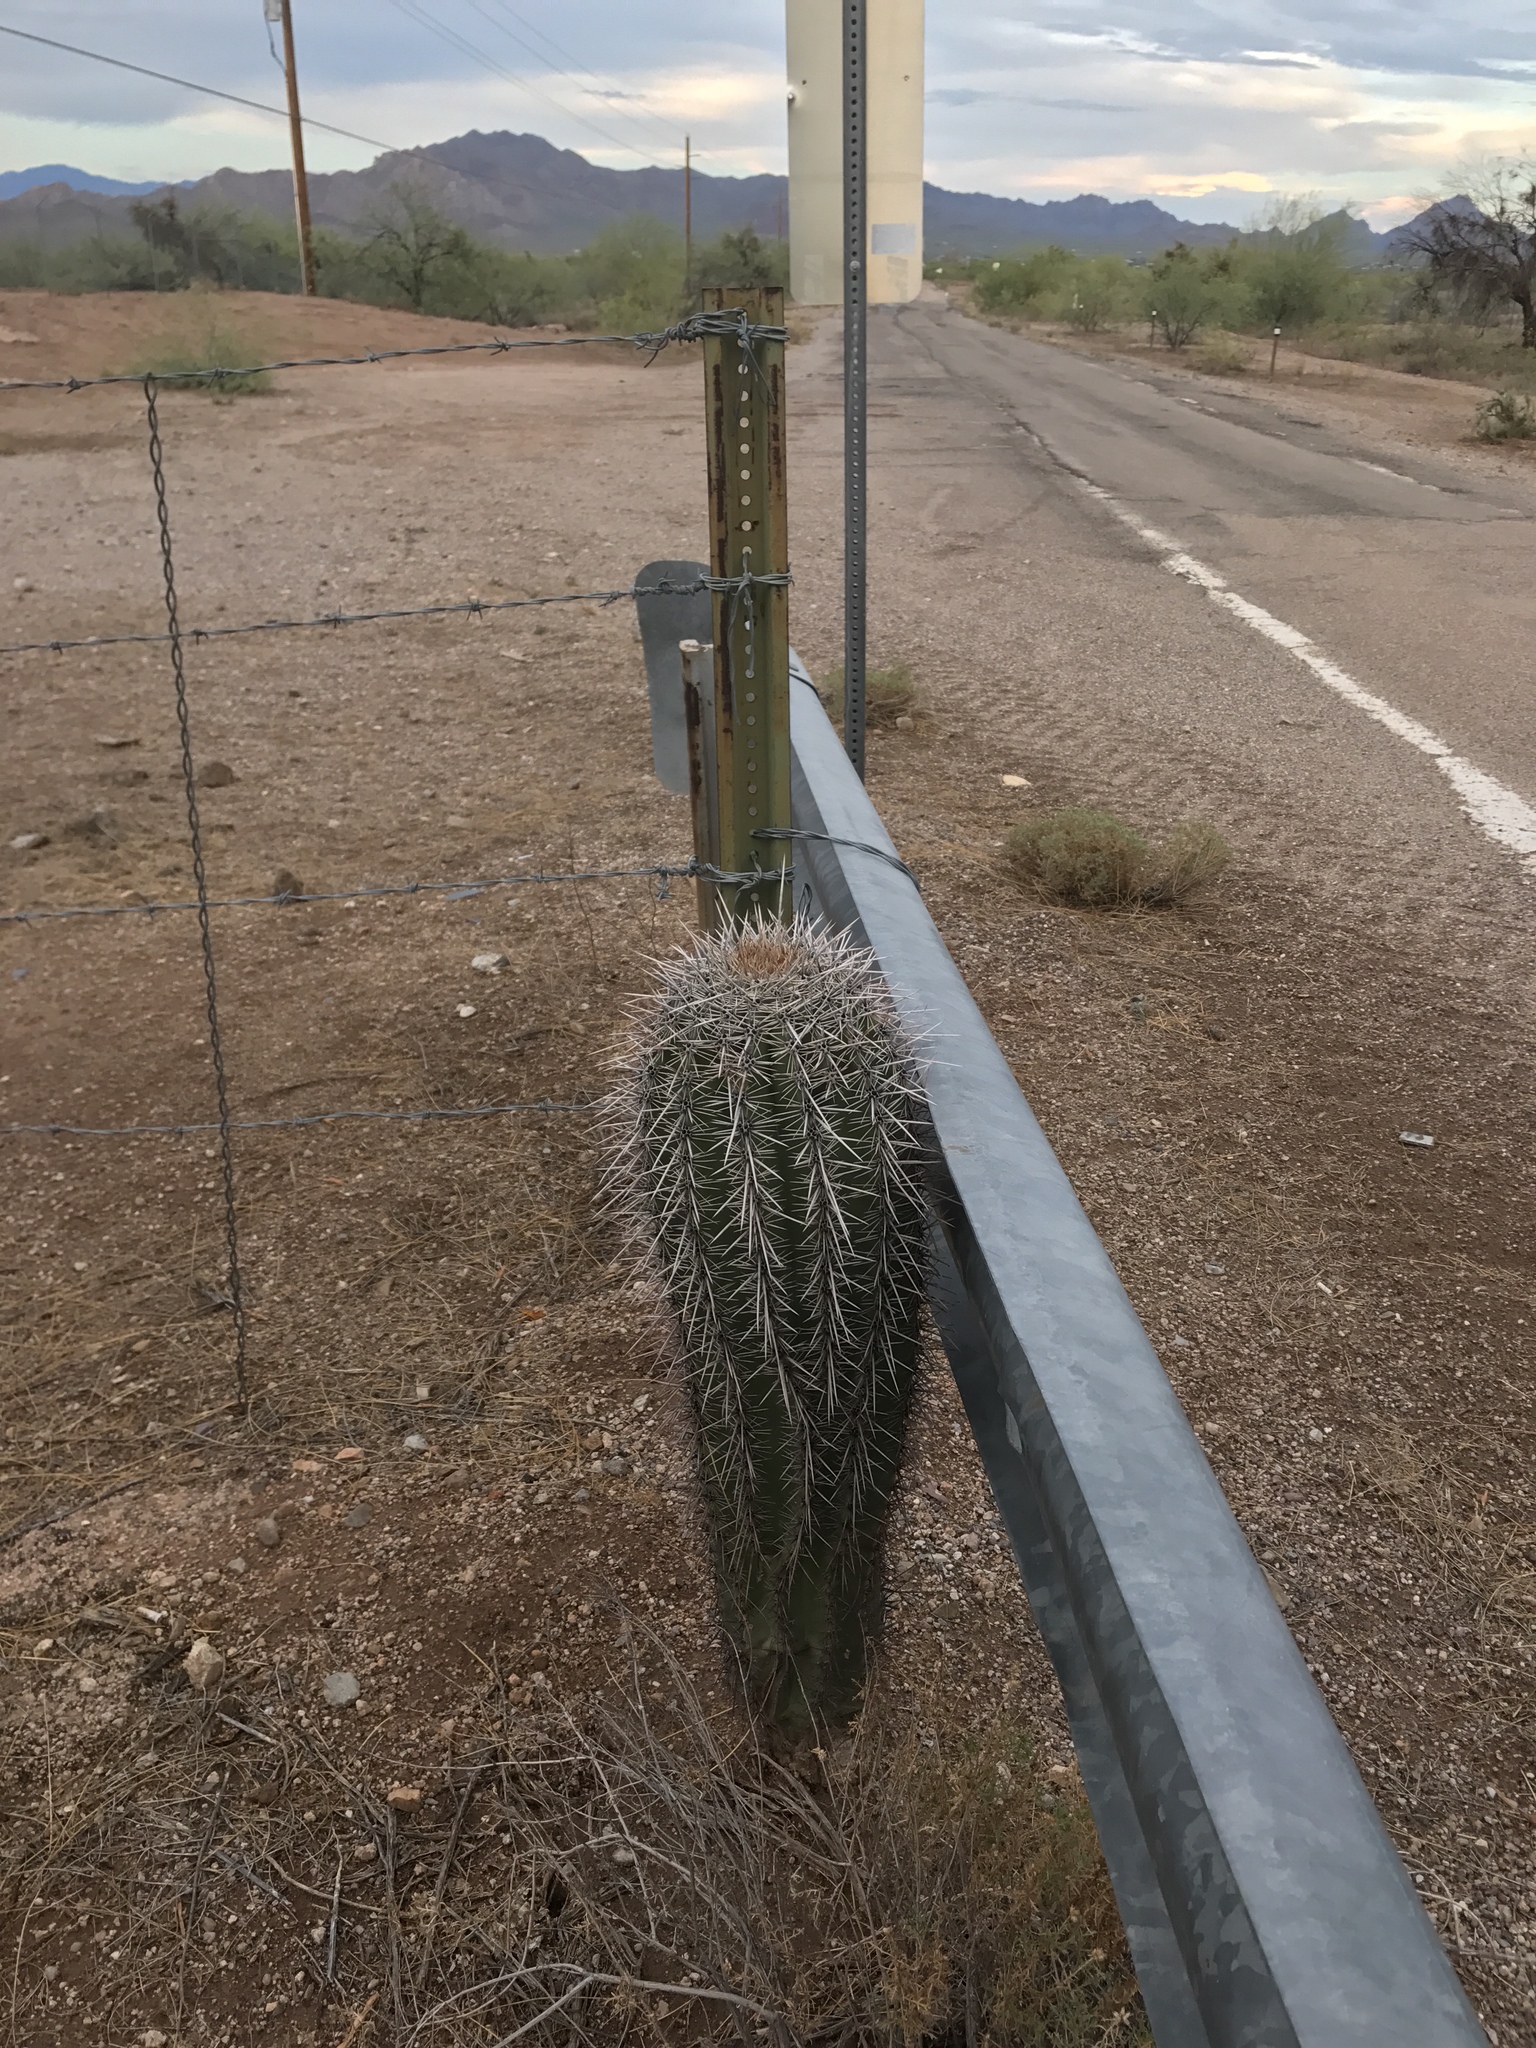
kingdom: Plantae
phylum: Tracheophyta
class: Magnoliopsida
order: Caryophyllales
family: Cactaceae
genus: Carnegiea
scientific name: Carnegiea gigantea
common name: Saguaro
